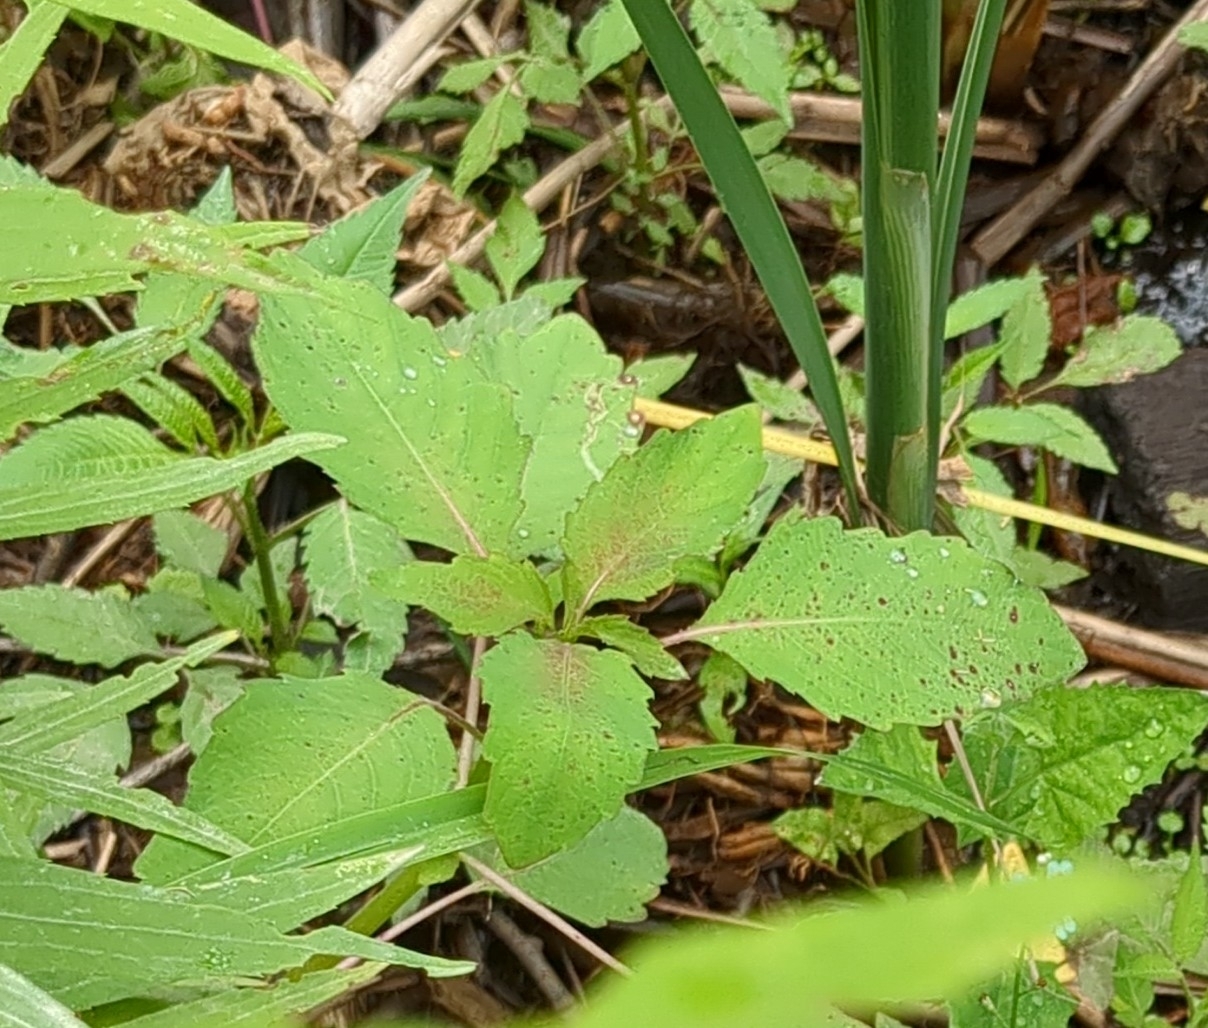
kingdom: Plantae
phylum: Tracheophyta
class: Magnoliopsida
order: Ericales
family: Balsaminaceae
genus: Impatiens
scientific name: Impatiens
